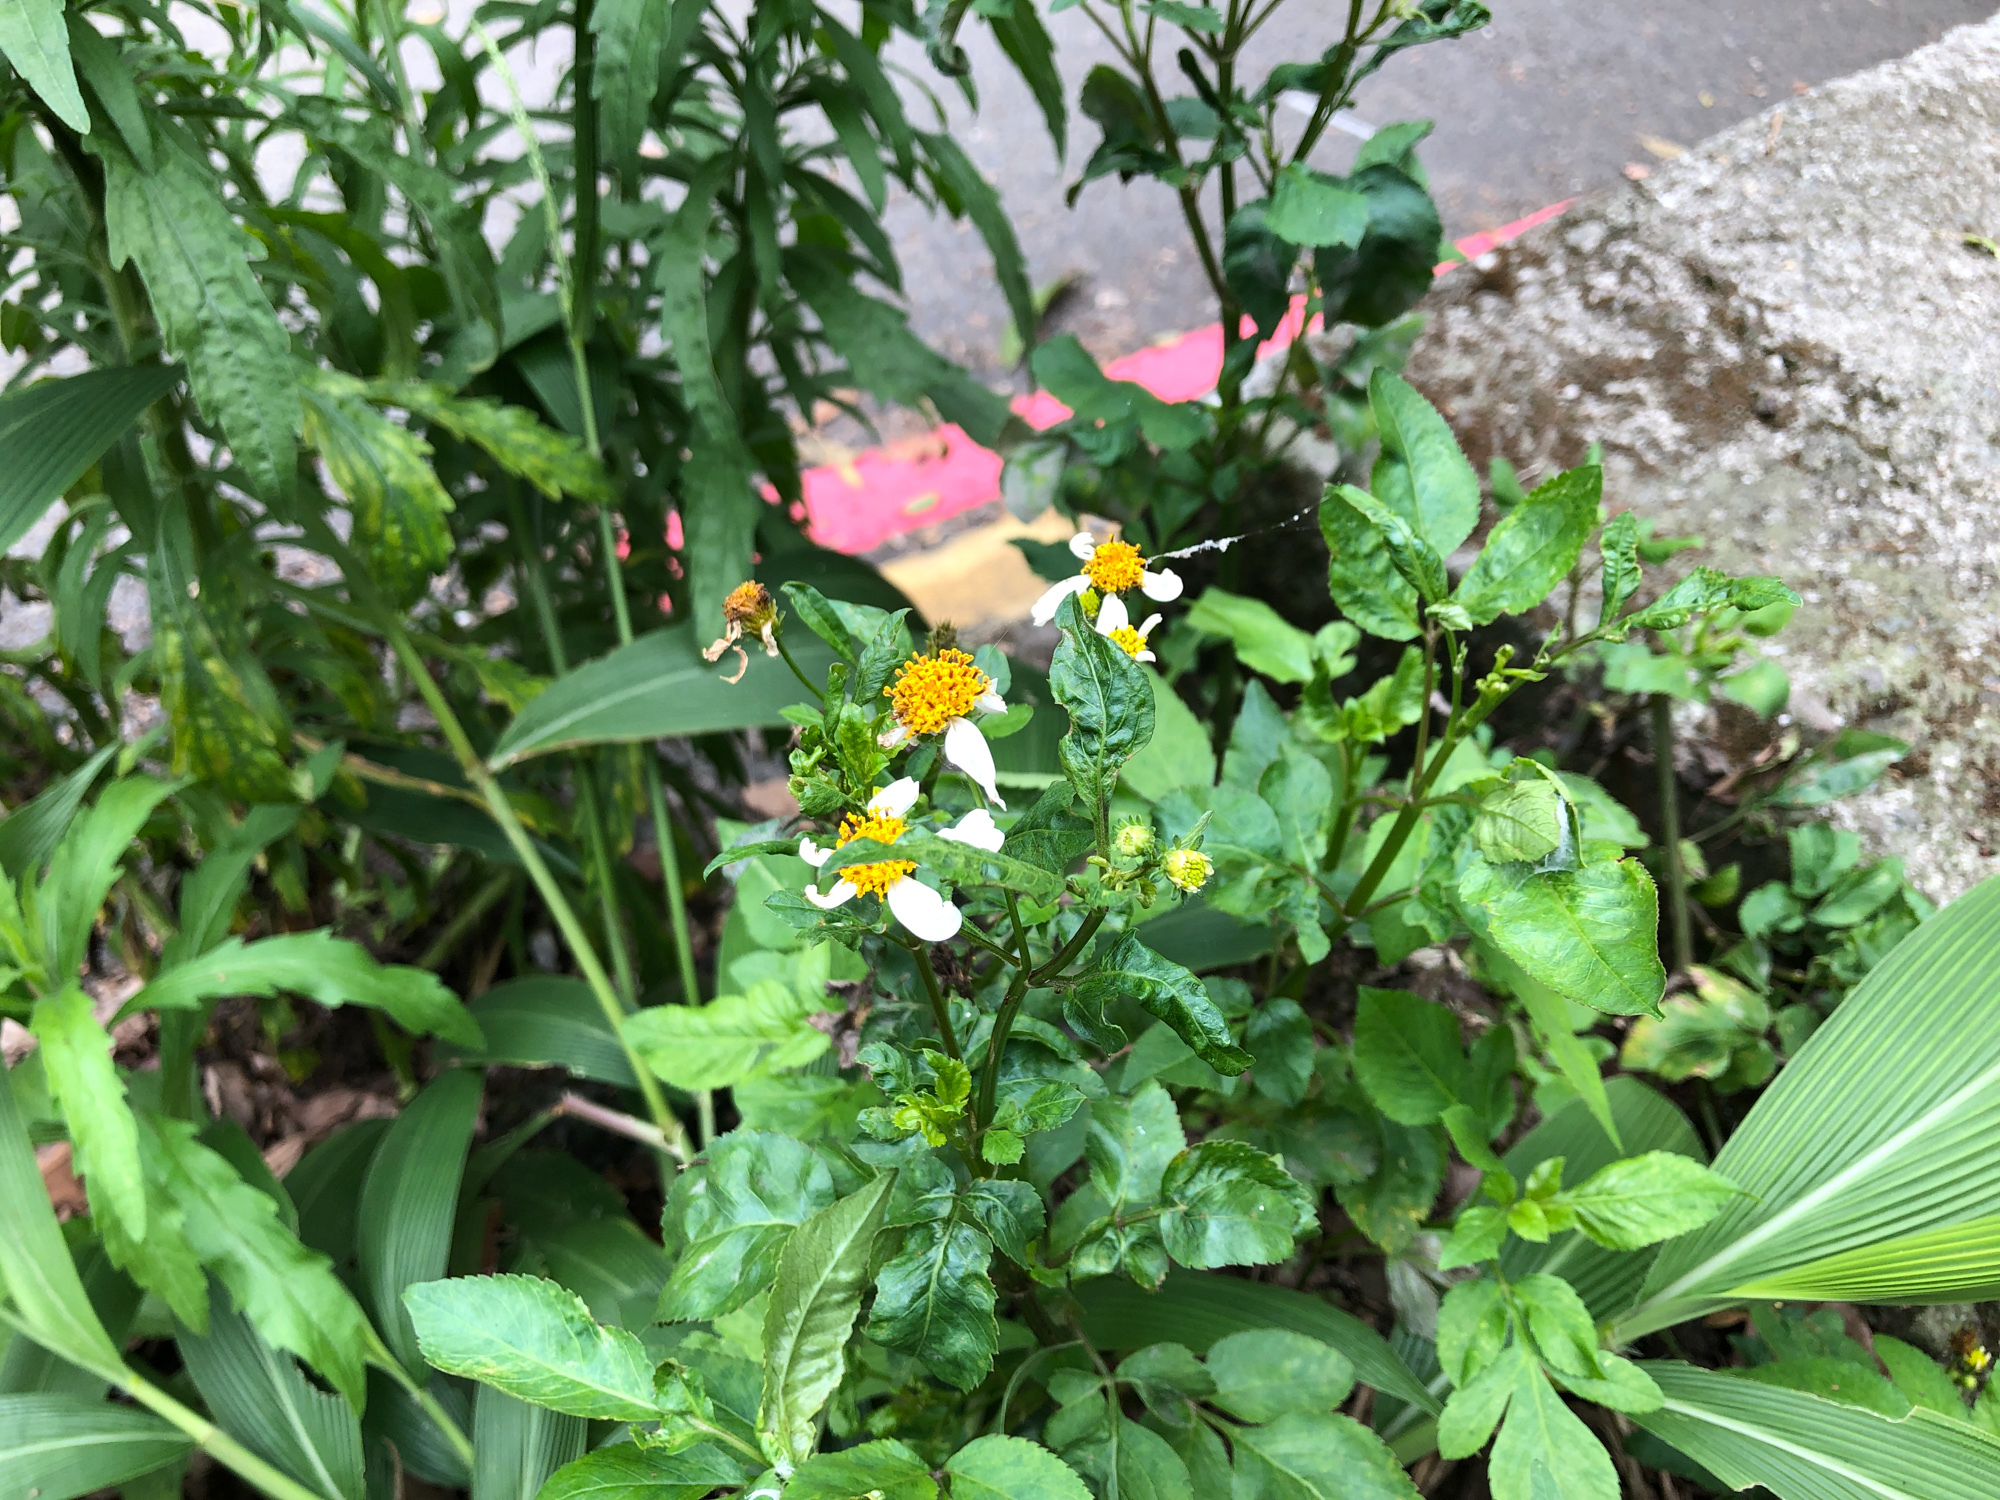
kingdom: Plantae
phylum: Tracheophyta
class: Magnoliopsida
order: Asterales
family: Asteraceae
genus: Bidens
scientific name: Bidens alba
